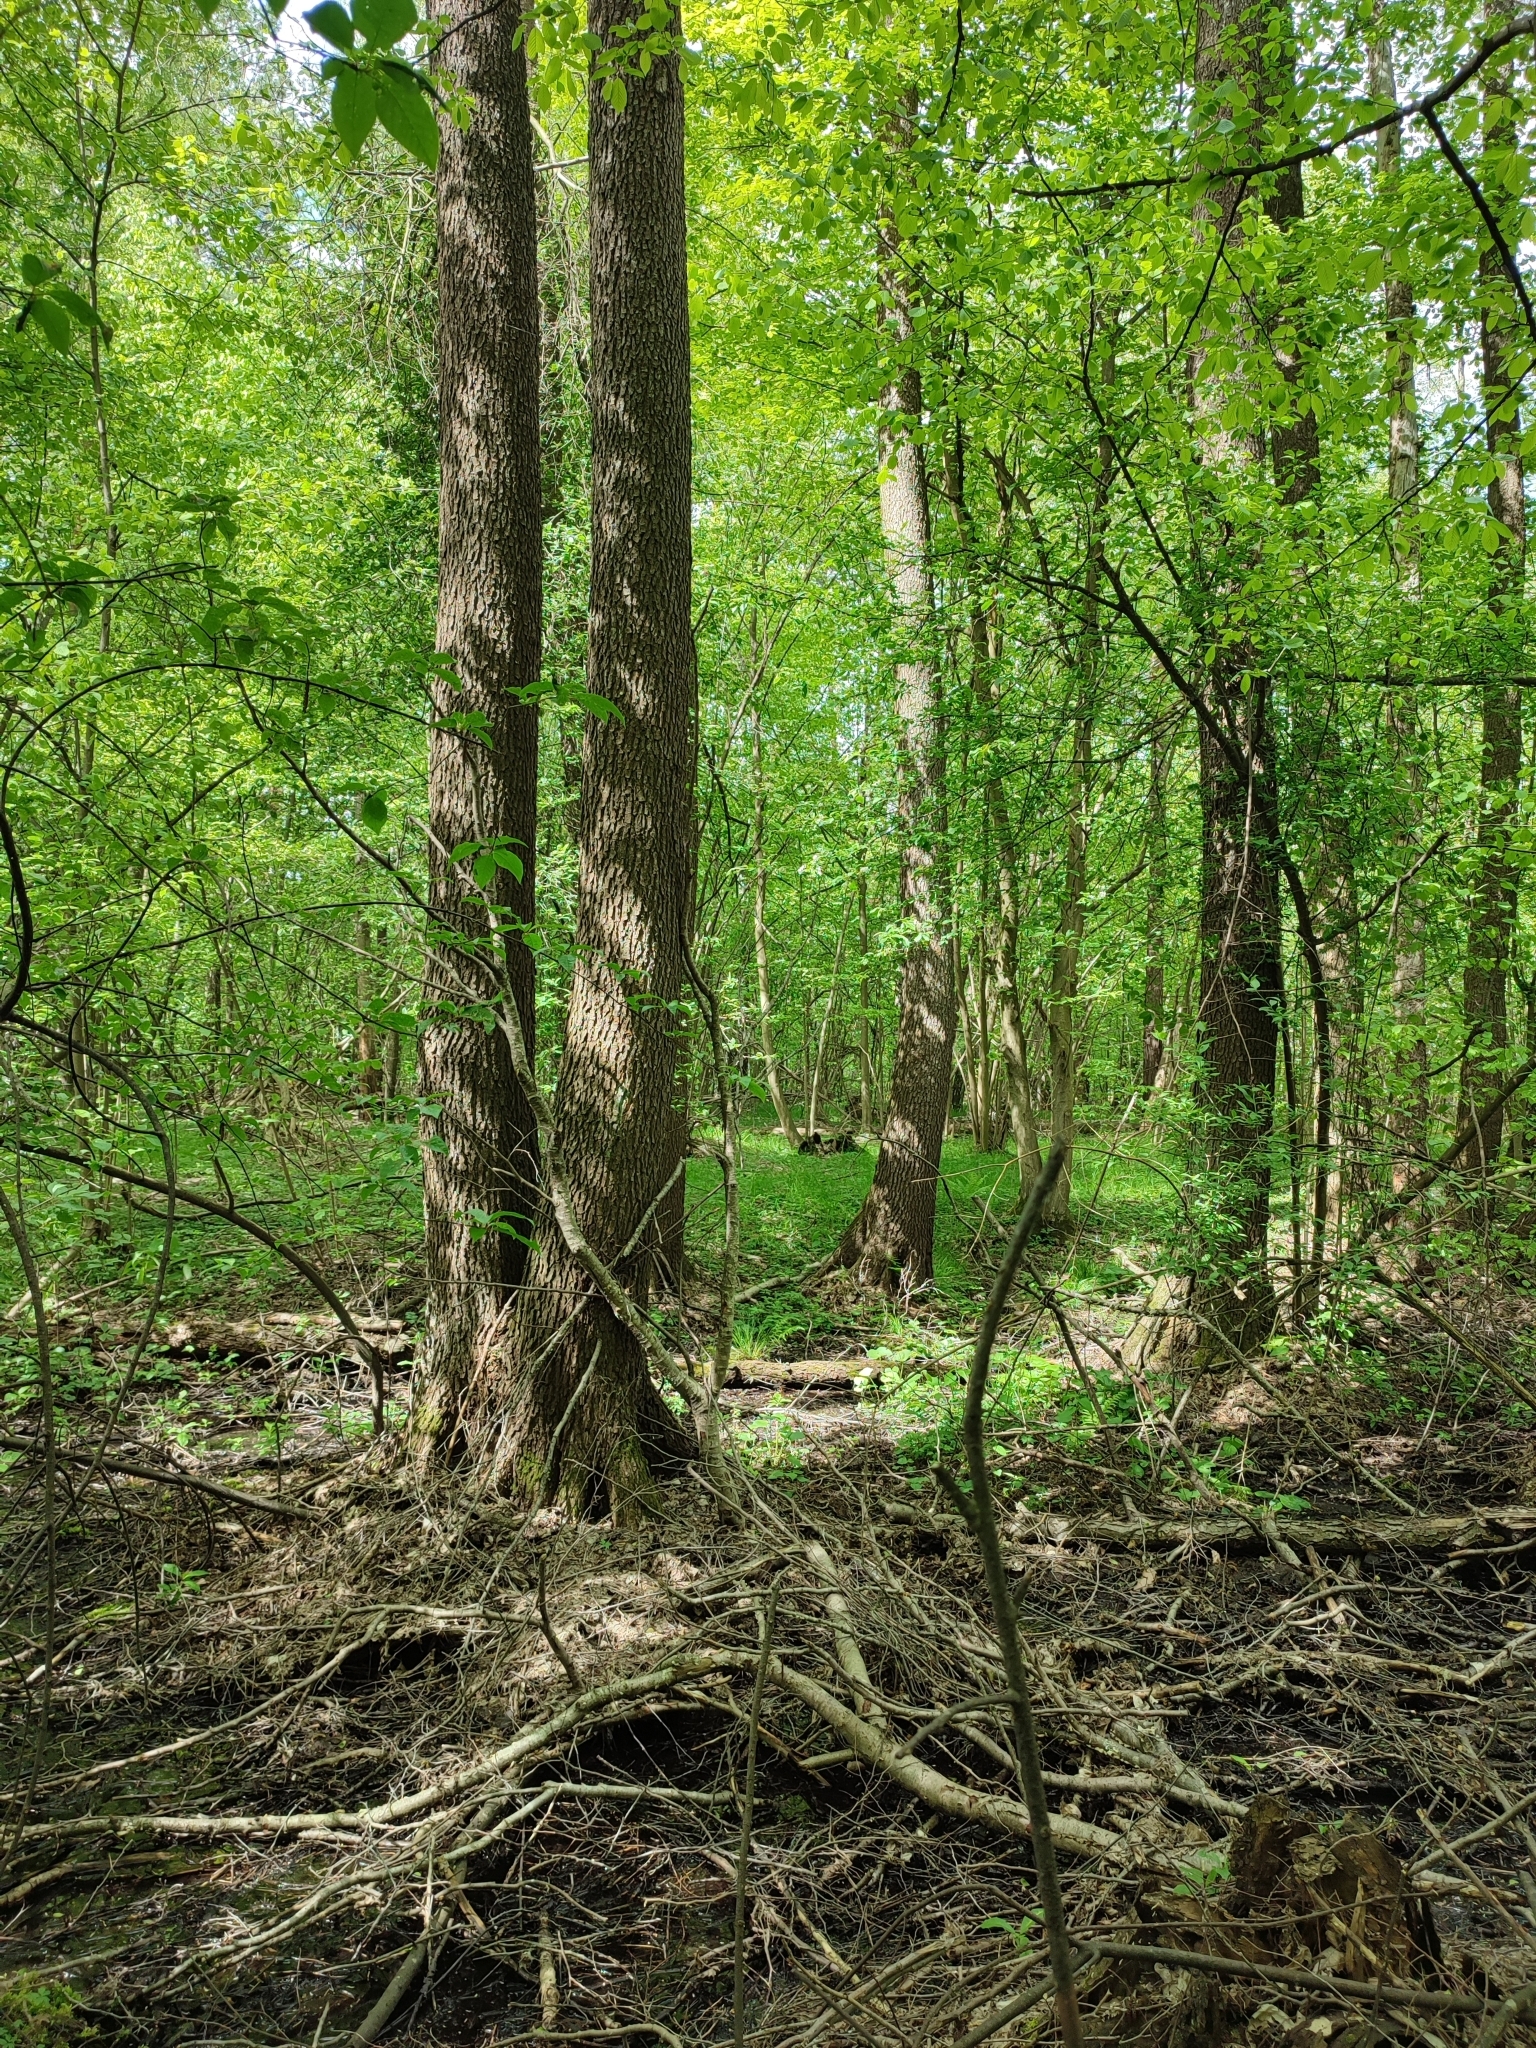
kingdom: Plantae
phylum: Tracheophyta
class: Magnoliopsida
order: Fagales
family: Betulaceae
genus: Alnus
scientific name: Alnus glutinosa
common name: Black alder
